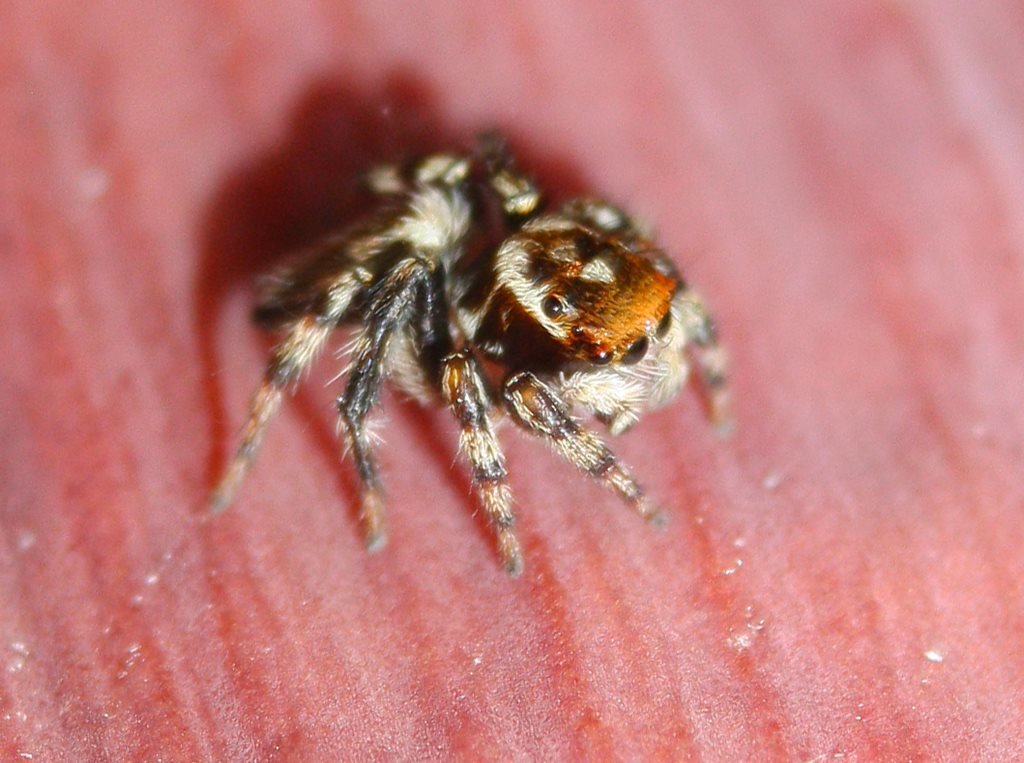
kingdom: Animalia
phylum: Arthropoda
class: Arachnida
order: Araneae
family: Salticidae
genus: Maratus
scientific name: Maratus griseus
